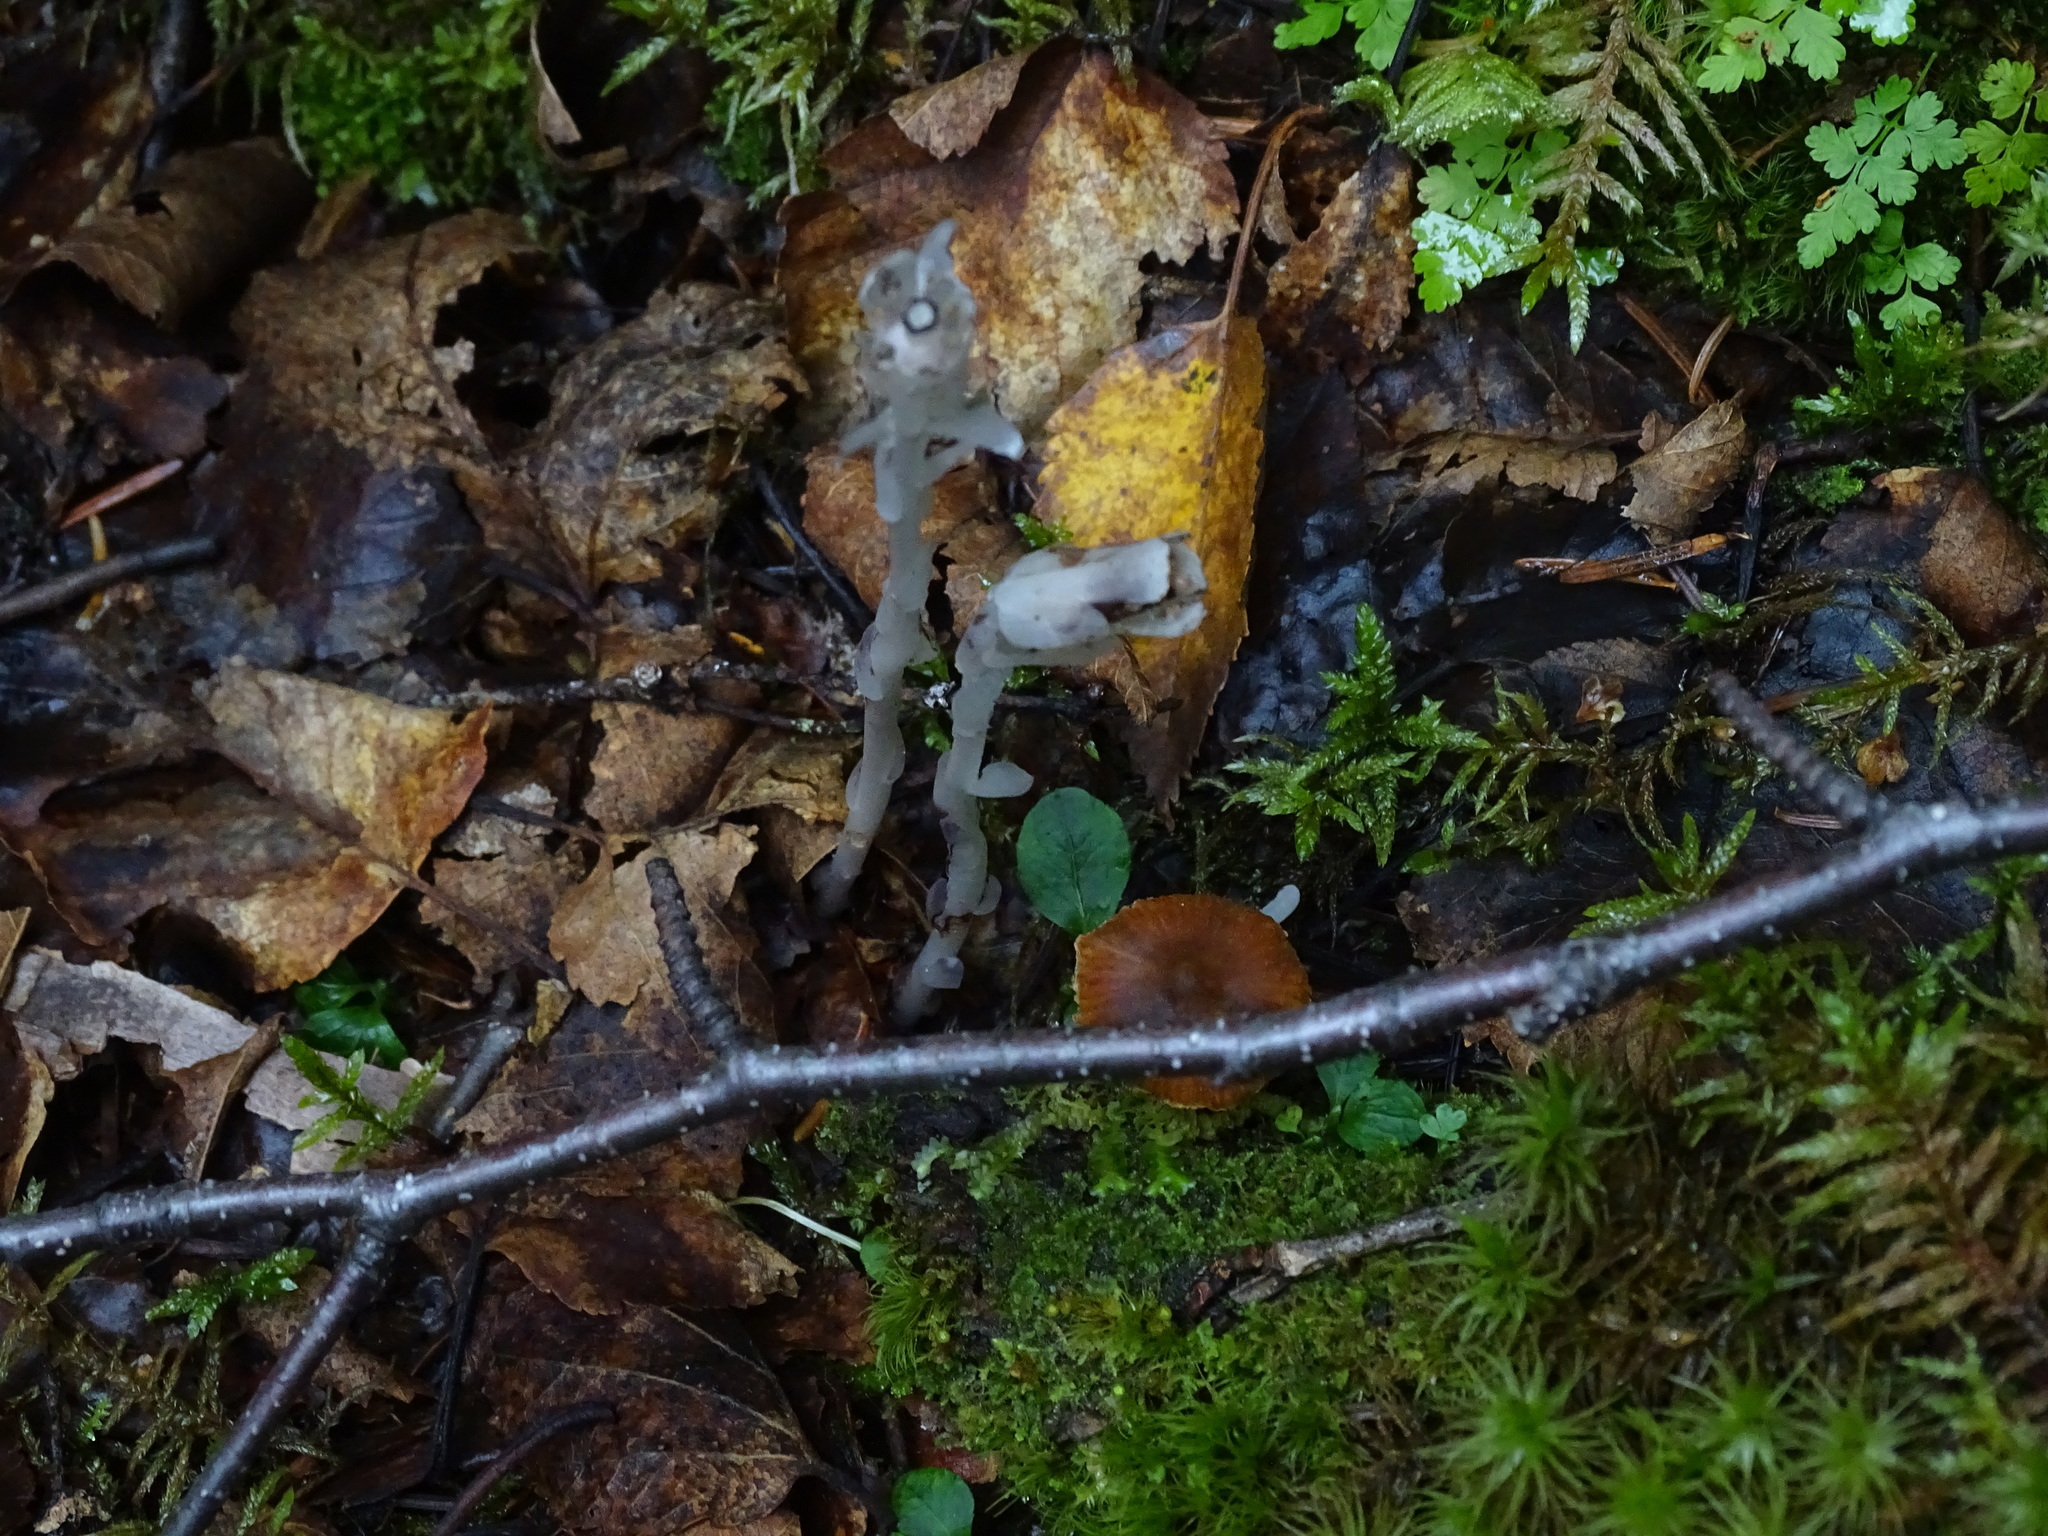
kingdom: Plantae
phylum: Tracheophyta
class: Magnoliopsida
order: Ericales
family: Ericaceae
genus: Monotropa
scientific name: Monotropa uniflora
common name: Convulsion root
